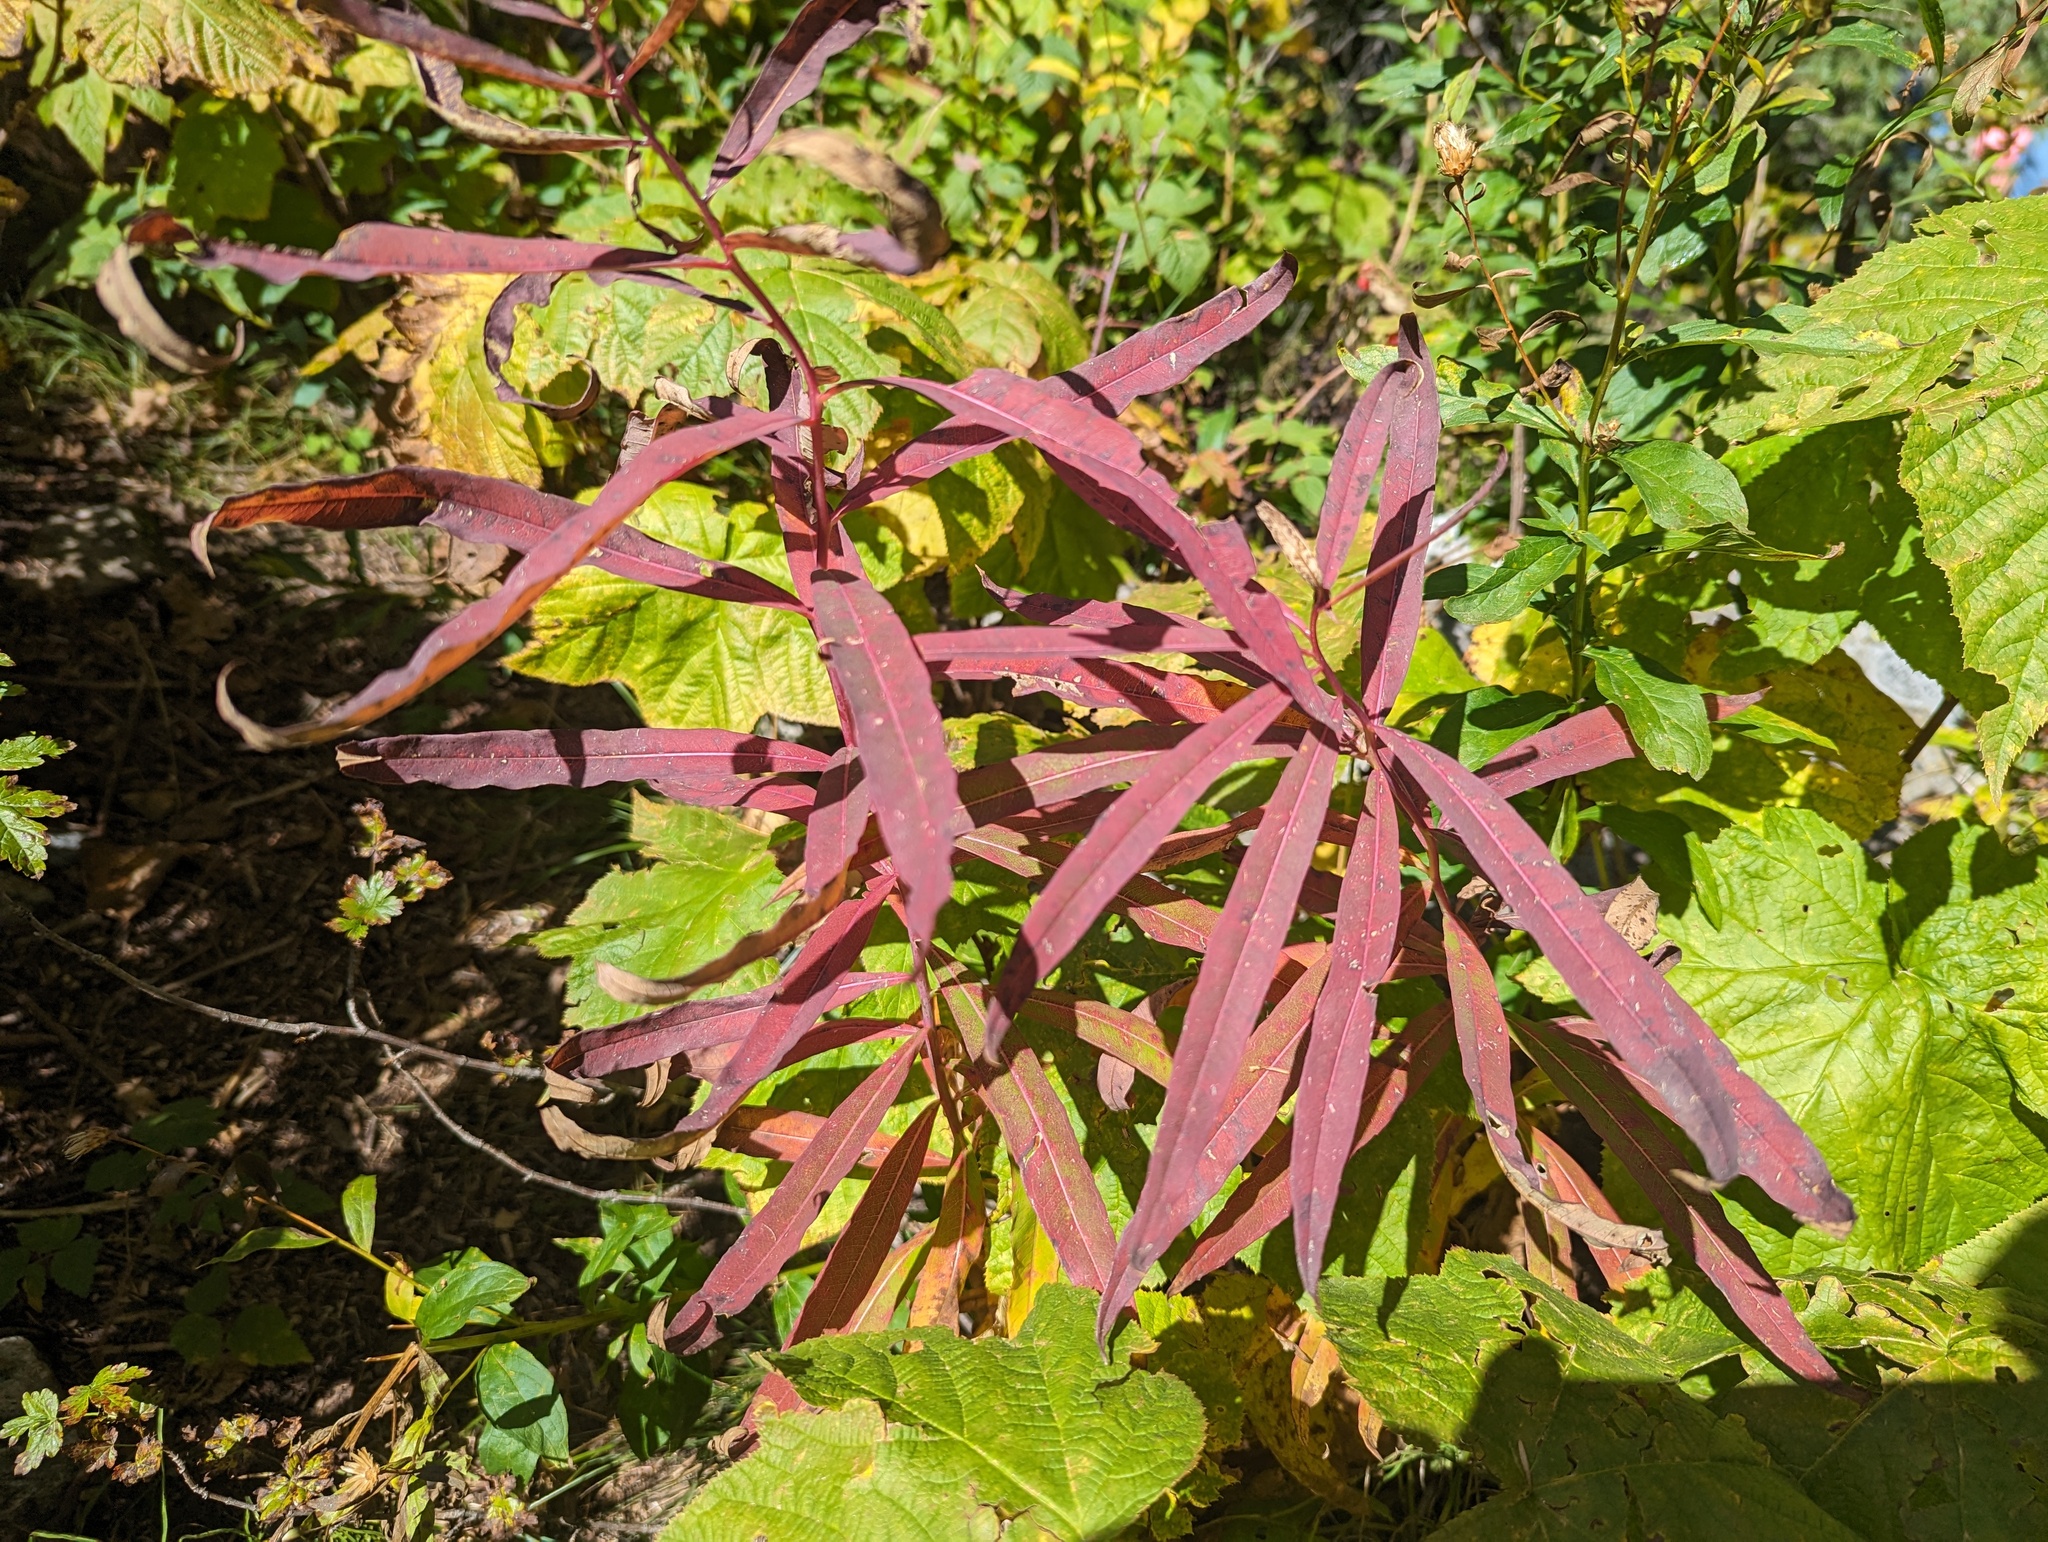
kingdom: Plantae
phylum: Tracheophyta
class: Magnoliopsida
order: Myrtales
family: Onagraceae
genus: Chamaenerion
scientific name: Chamaenerion angustifolium
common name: Fireweed
